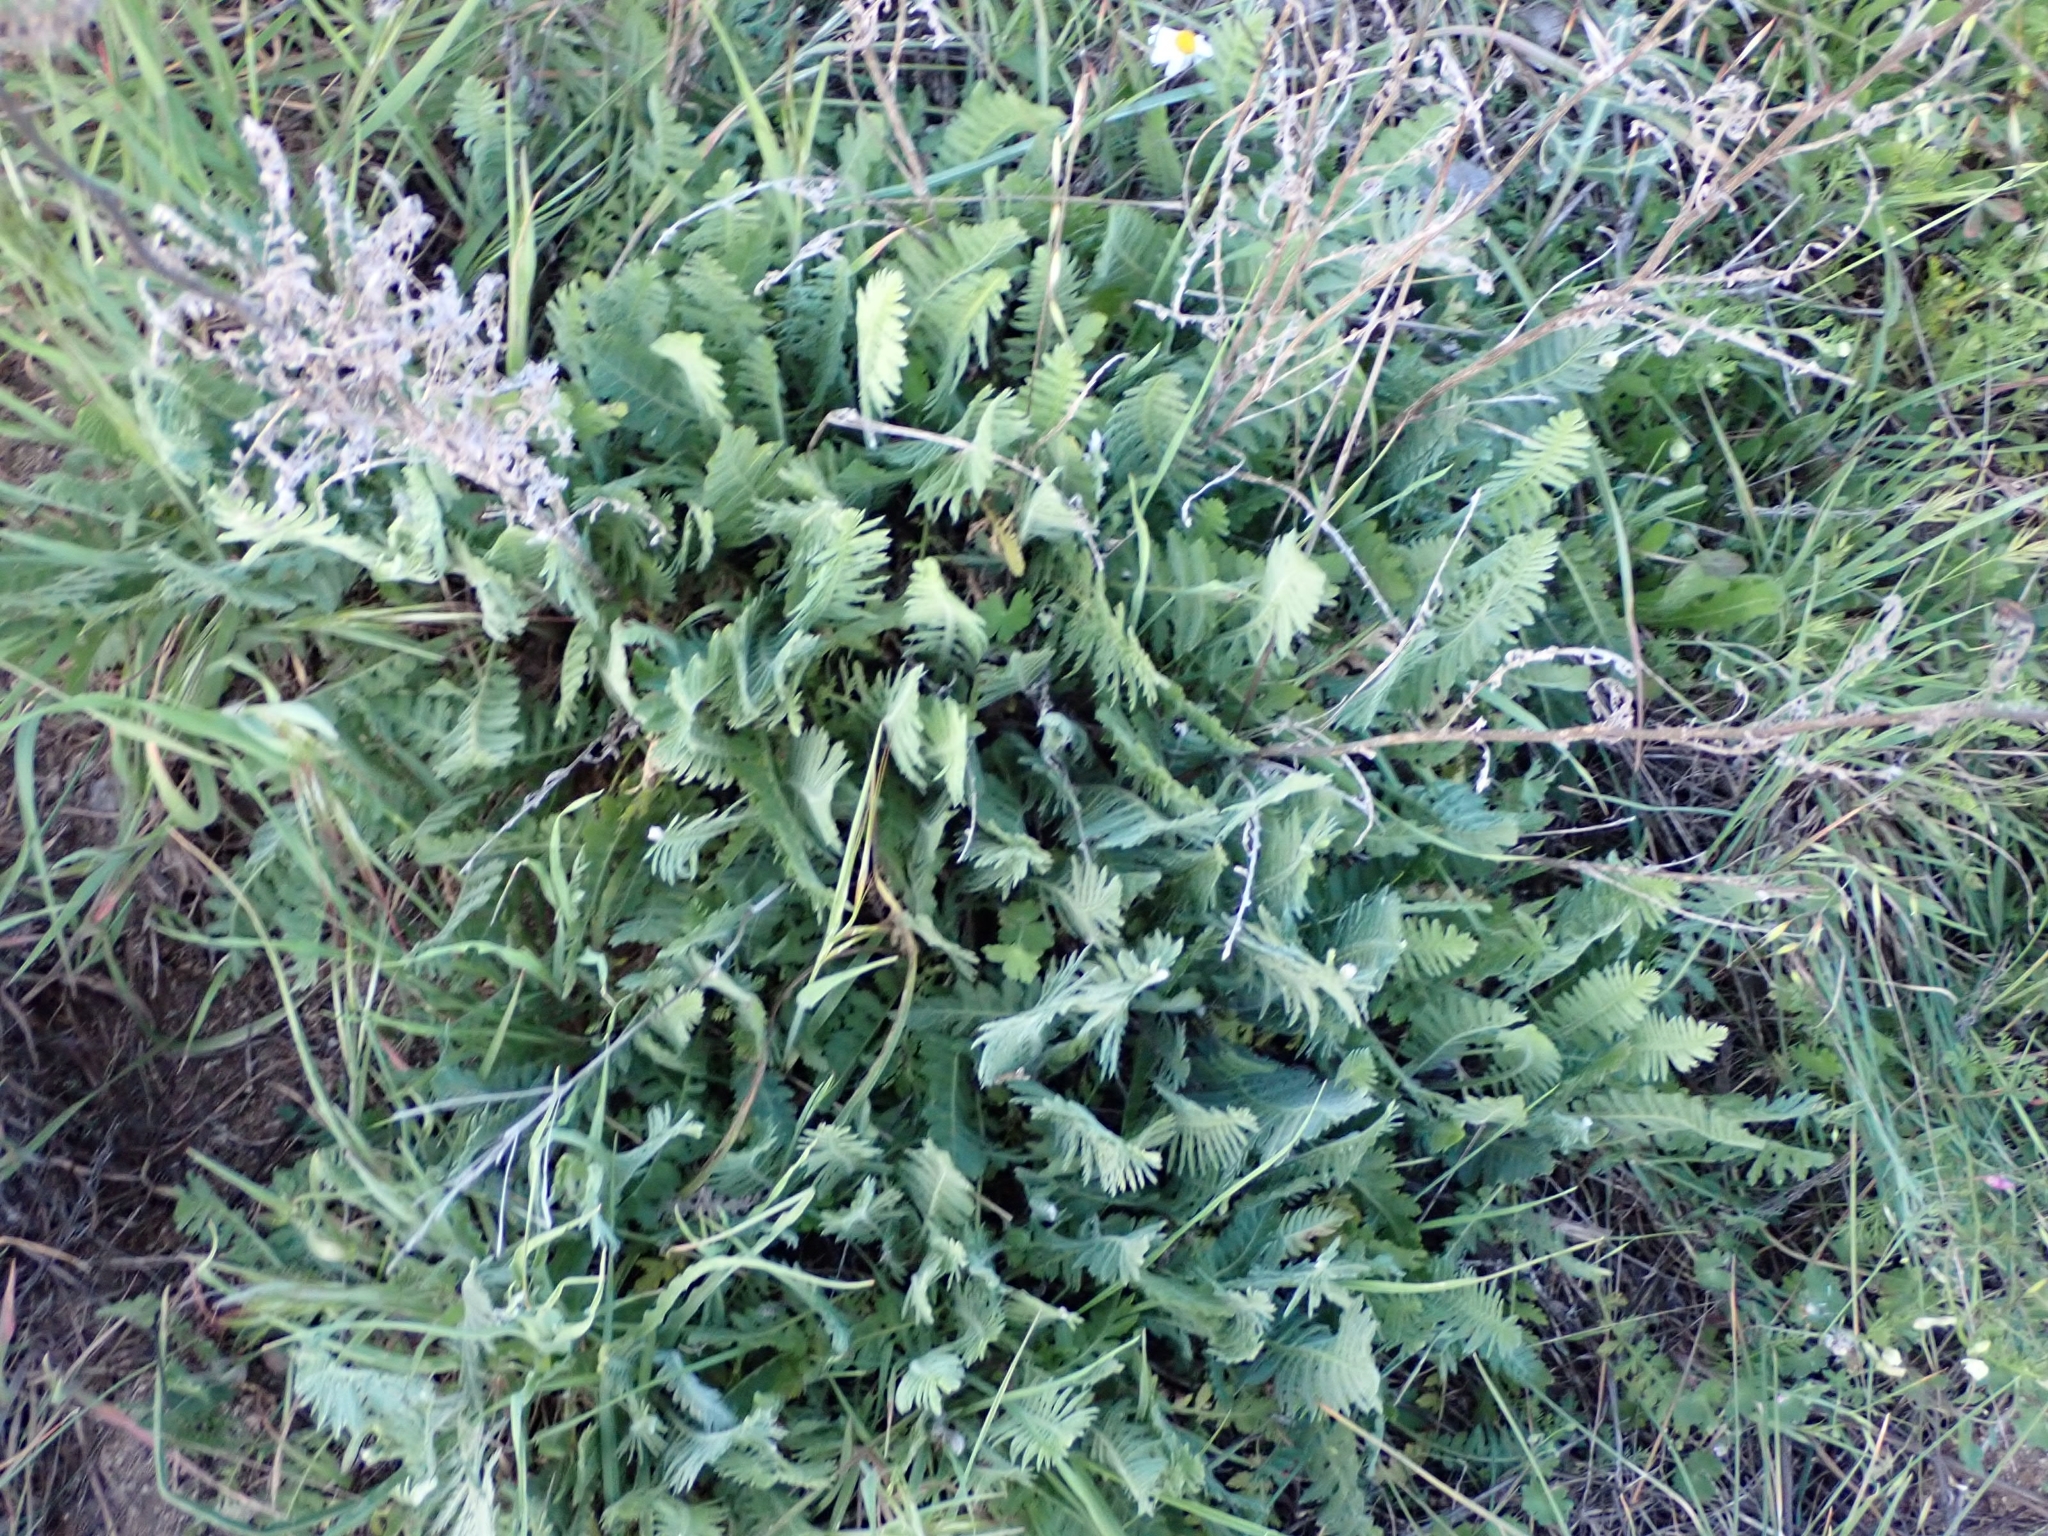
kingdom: Plantae
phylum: Tracheophyta
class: Magnoliopsida
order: Asterales
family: Asteraceae
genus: Achillea
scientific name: Achillea filipendulina
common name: Fernleaf yarrow
